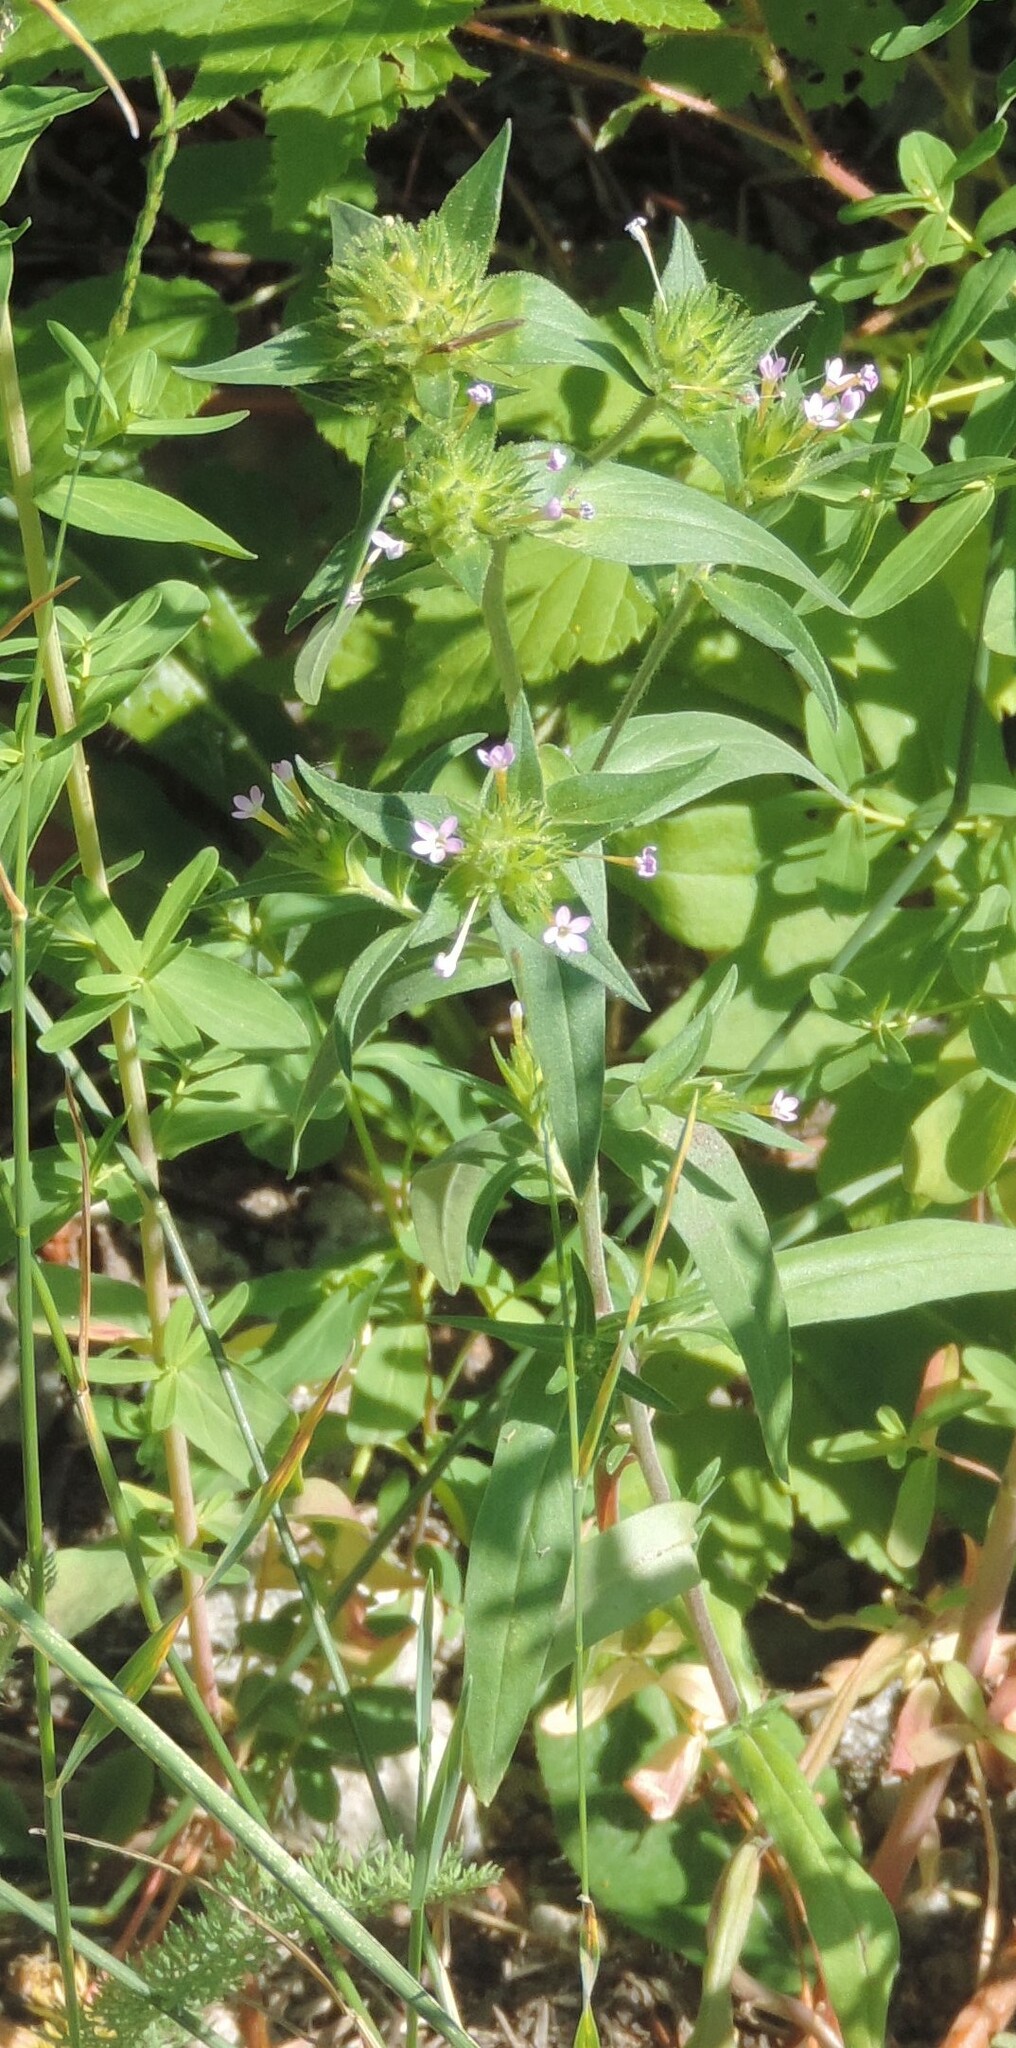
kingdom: Plantae
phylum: Tracheophyta
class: Magnoliopsida
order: Ericales
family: Polemoniaceae
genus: Collomia
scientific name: Collomia linearis
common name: Tiny trumpet
